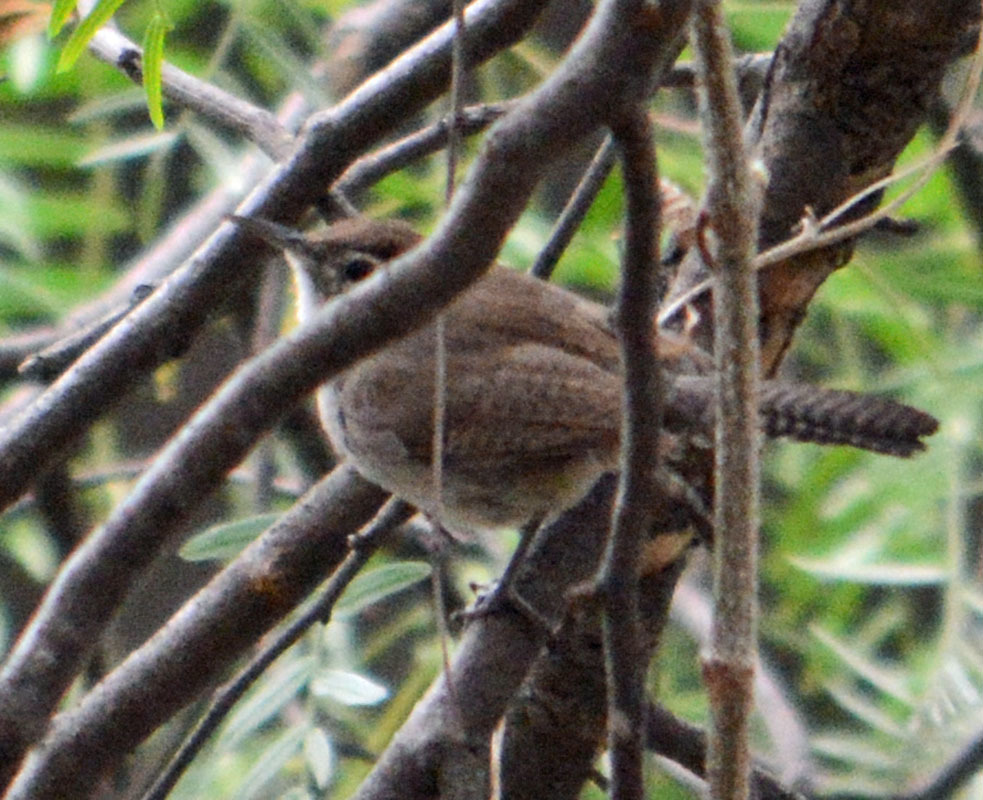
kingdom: Animalia
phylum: Chordata
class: Aves
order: Passeriformes
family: Troglodytidae
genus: Thryomanes
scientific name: Thryomanes bewickii
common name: Bewick's wren
